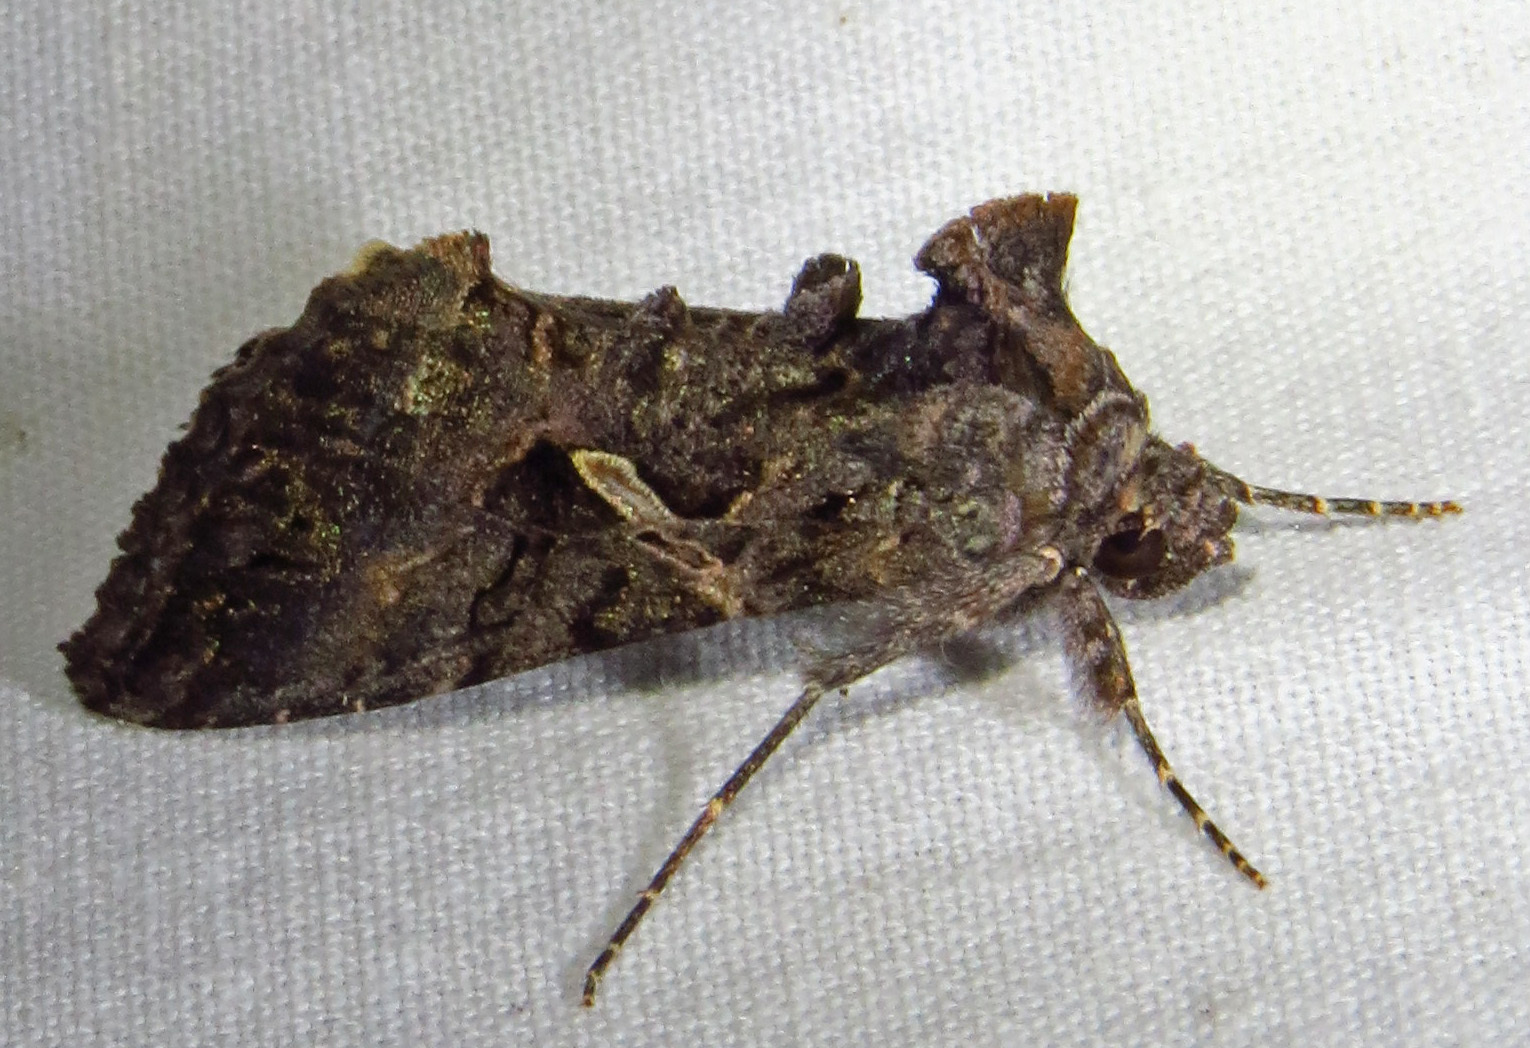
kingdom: Animalia
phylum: Arthropoda
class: Insecta
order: Lepidoptera
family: Noctuidae
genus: Ctenoplusia
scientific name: Ctenoplusia oxygramma
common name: Sharp-stigma looper moth
